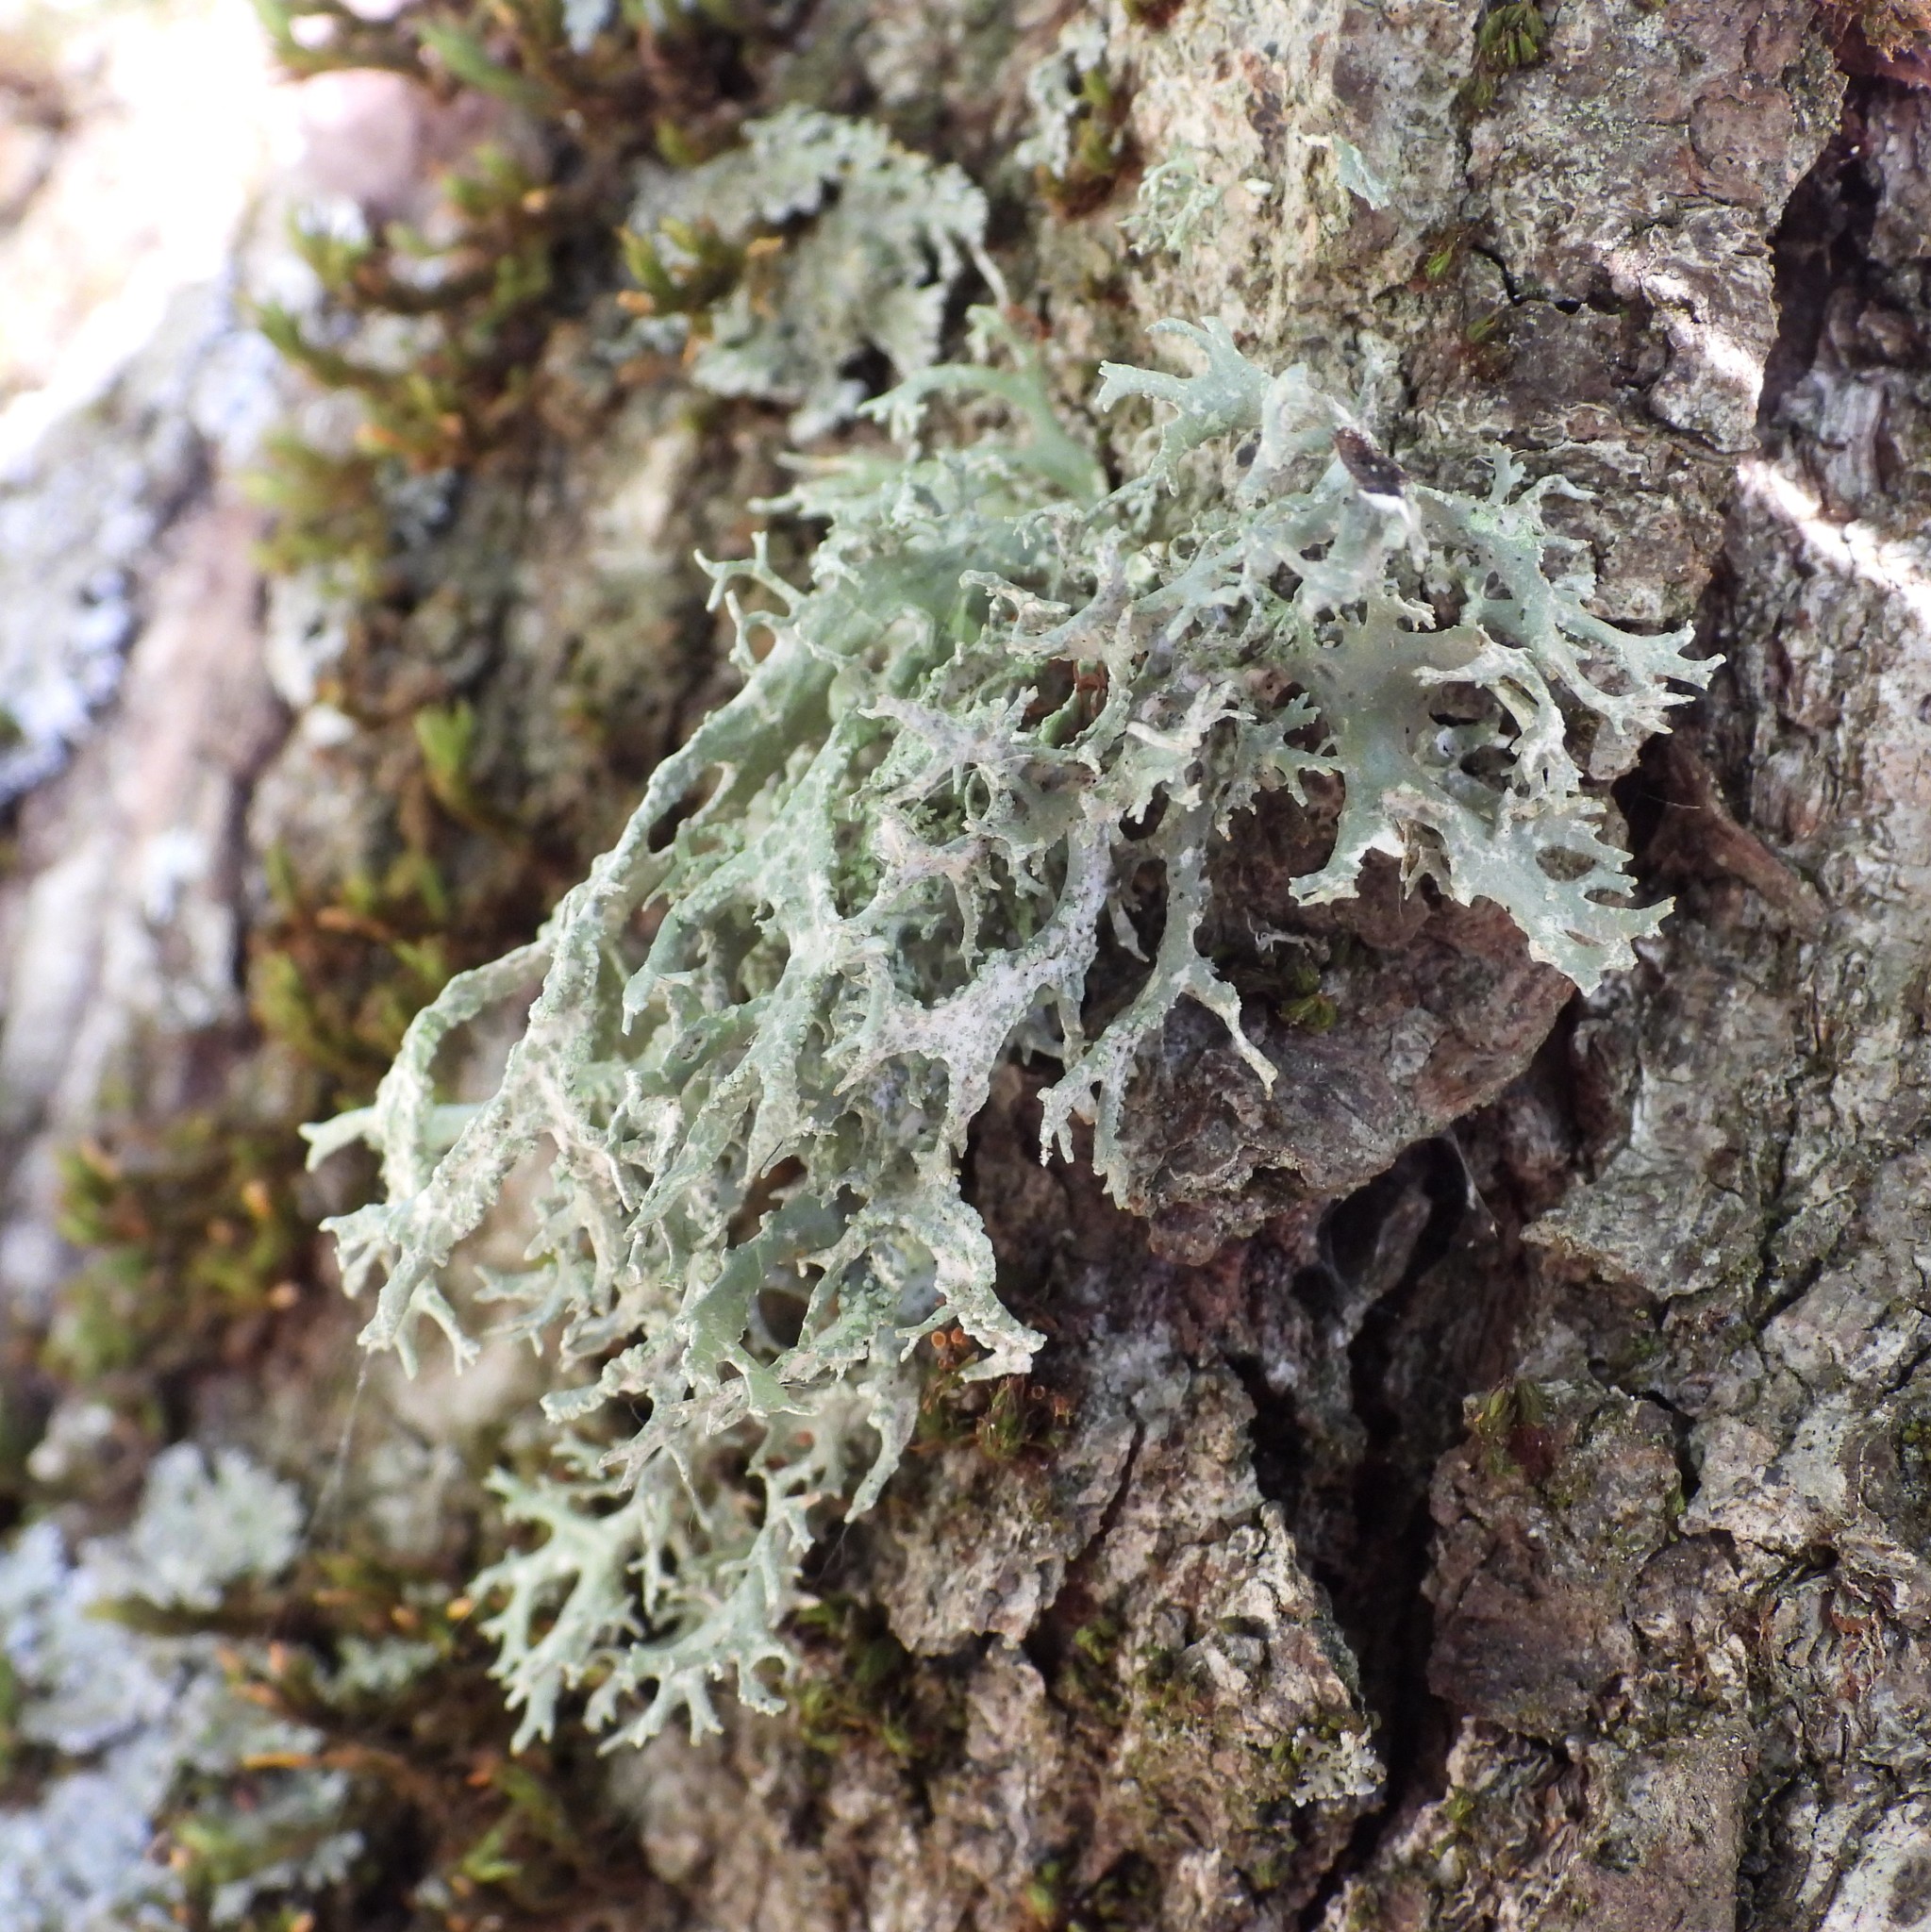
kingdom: Fungi
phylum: Ascomycota
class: Lecanoromycetes
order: Lecanorales
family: Parmeliaceae
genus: Evernia
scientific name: Evernia prunastri
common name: Oak moss
